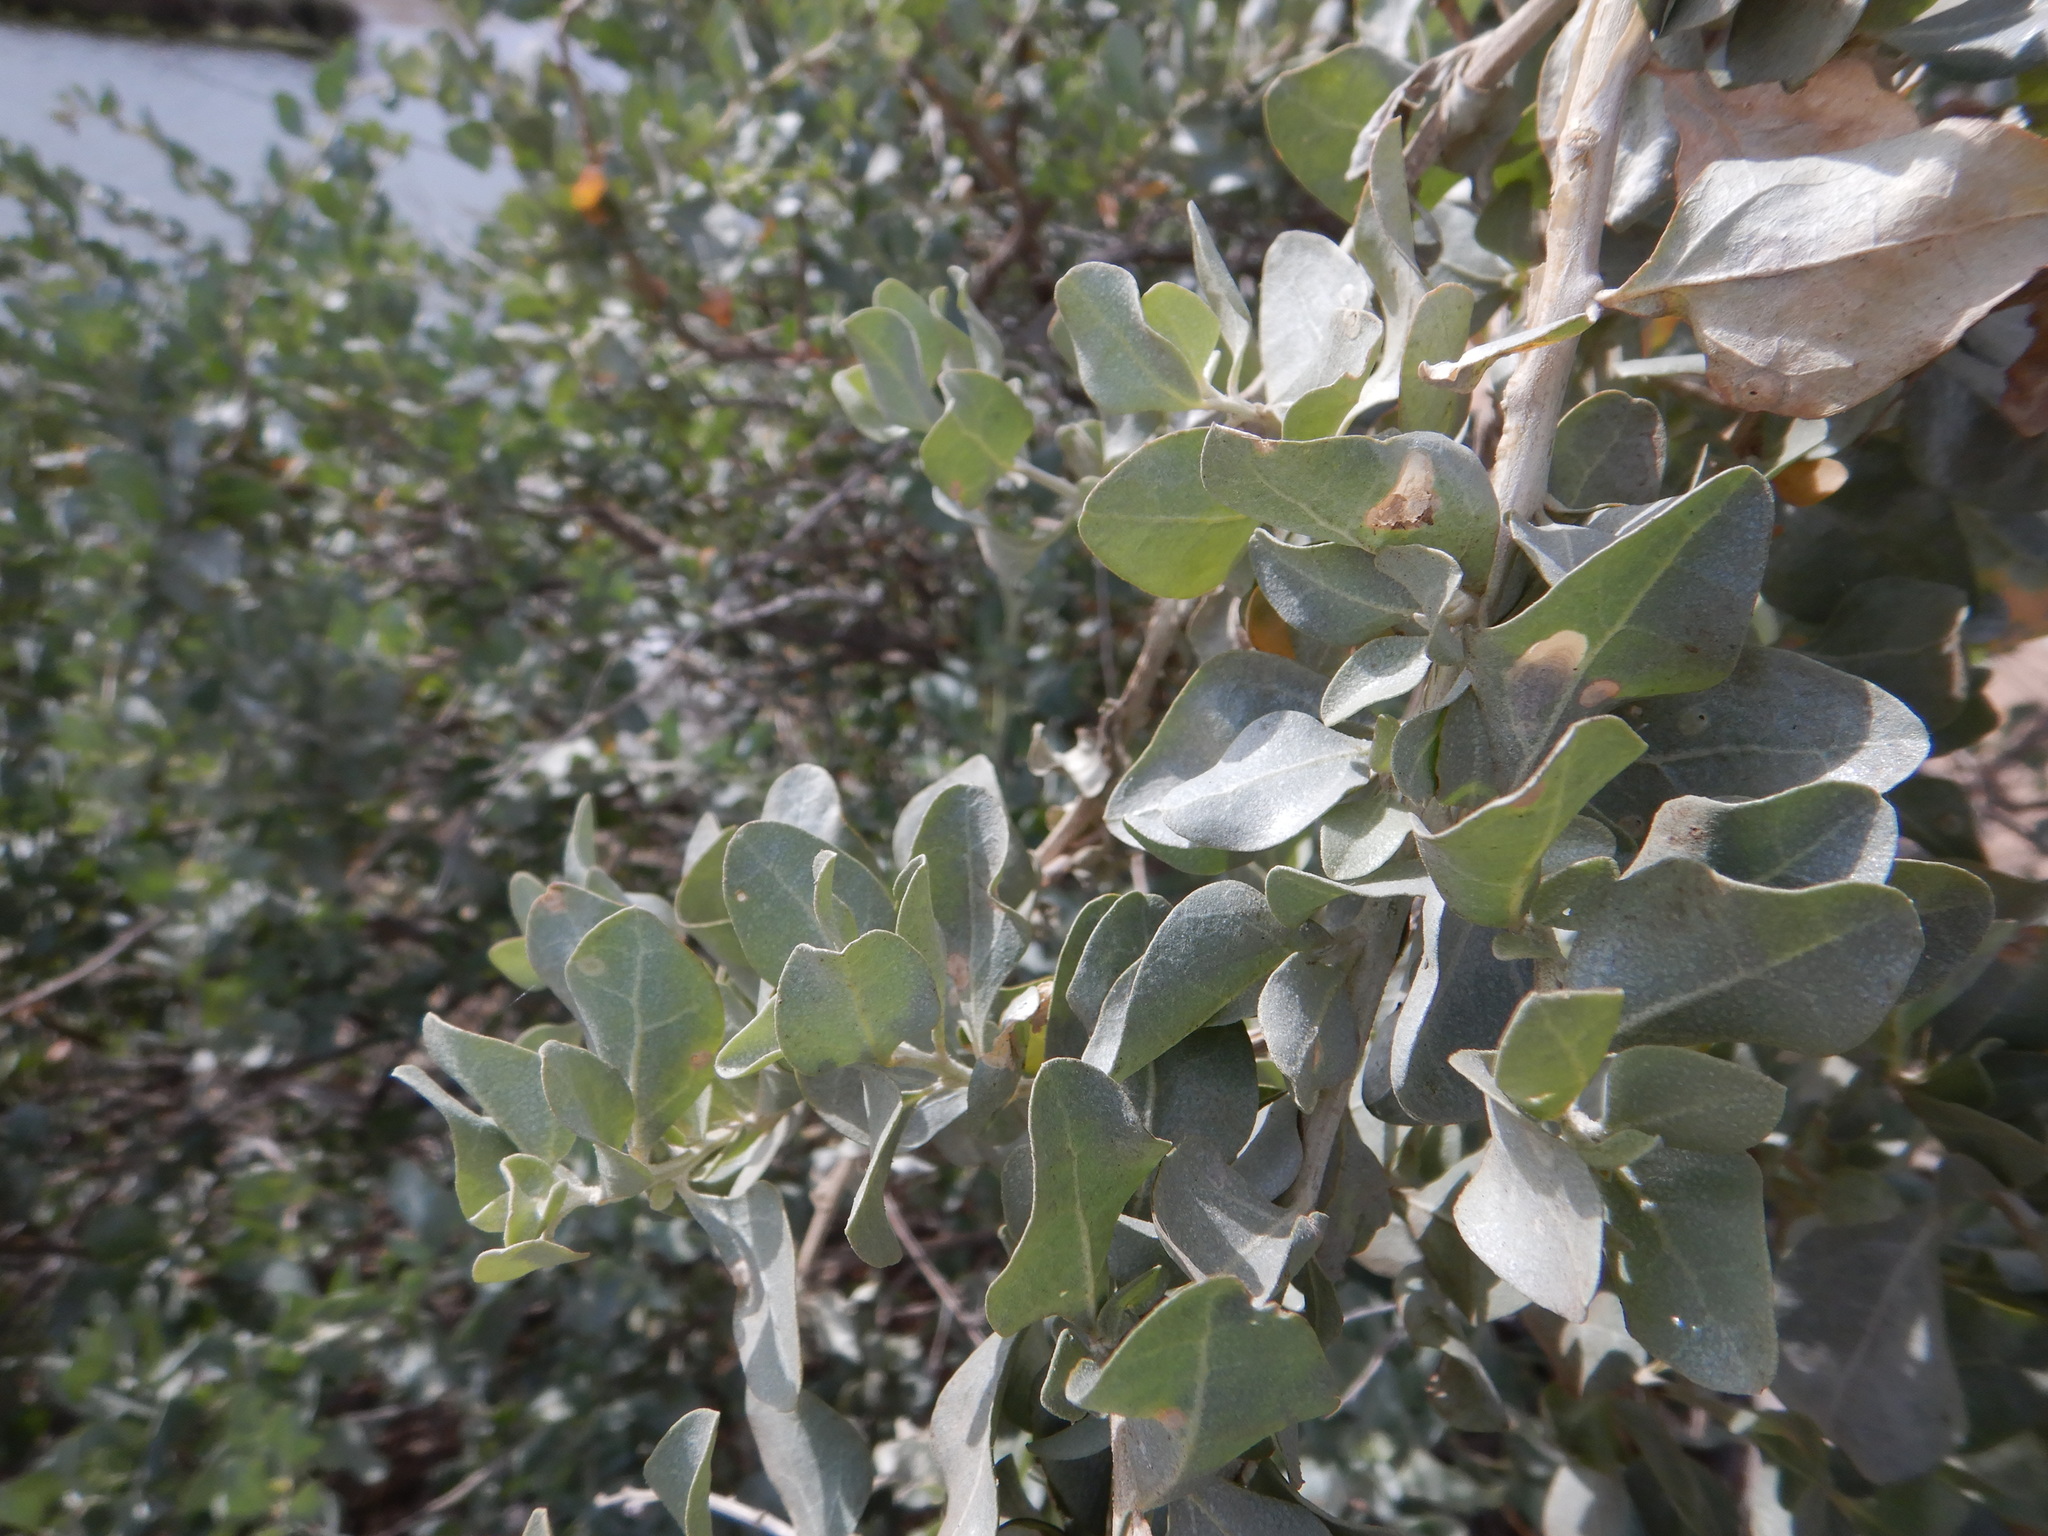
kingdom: Plantae
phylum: Tracheophyta
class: Magnoliopsida
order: Caryophyllales
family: Amaranthaceae
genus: Atriplex
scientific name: Atriplex halimus
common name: Shrubby orache
